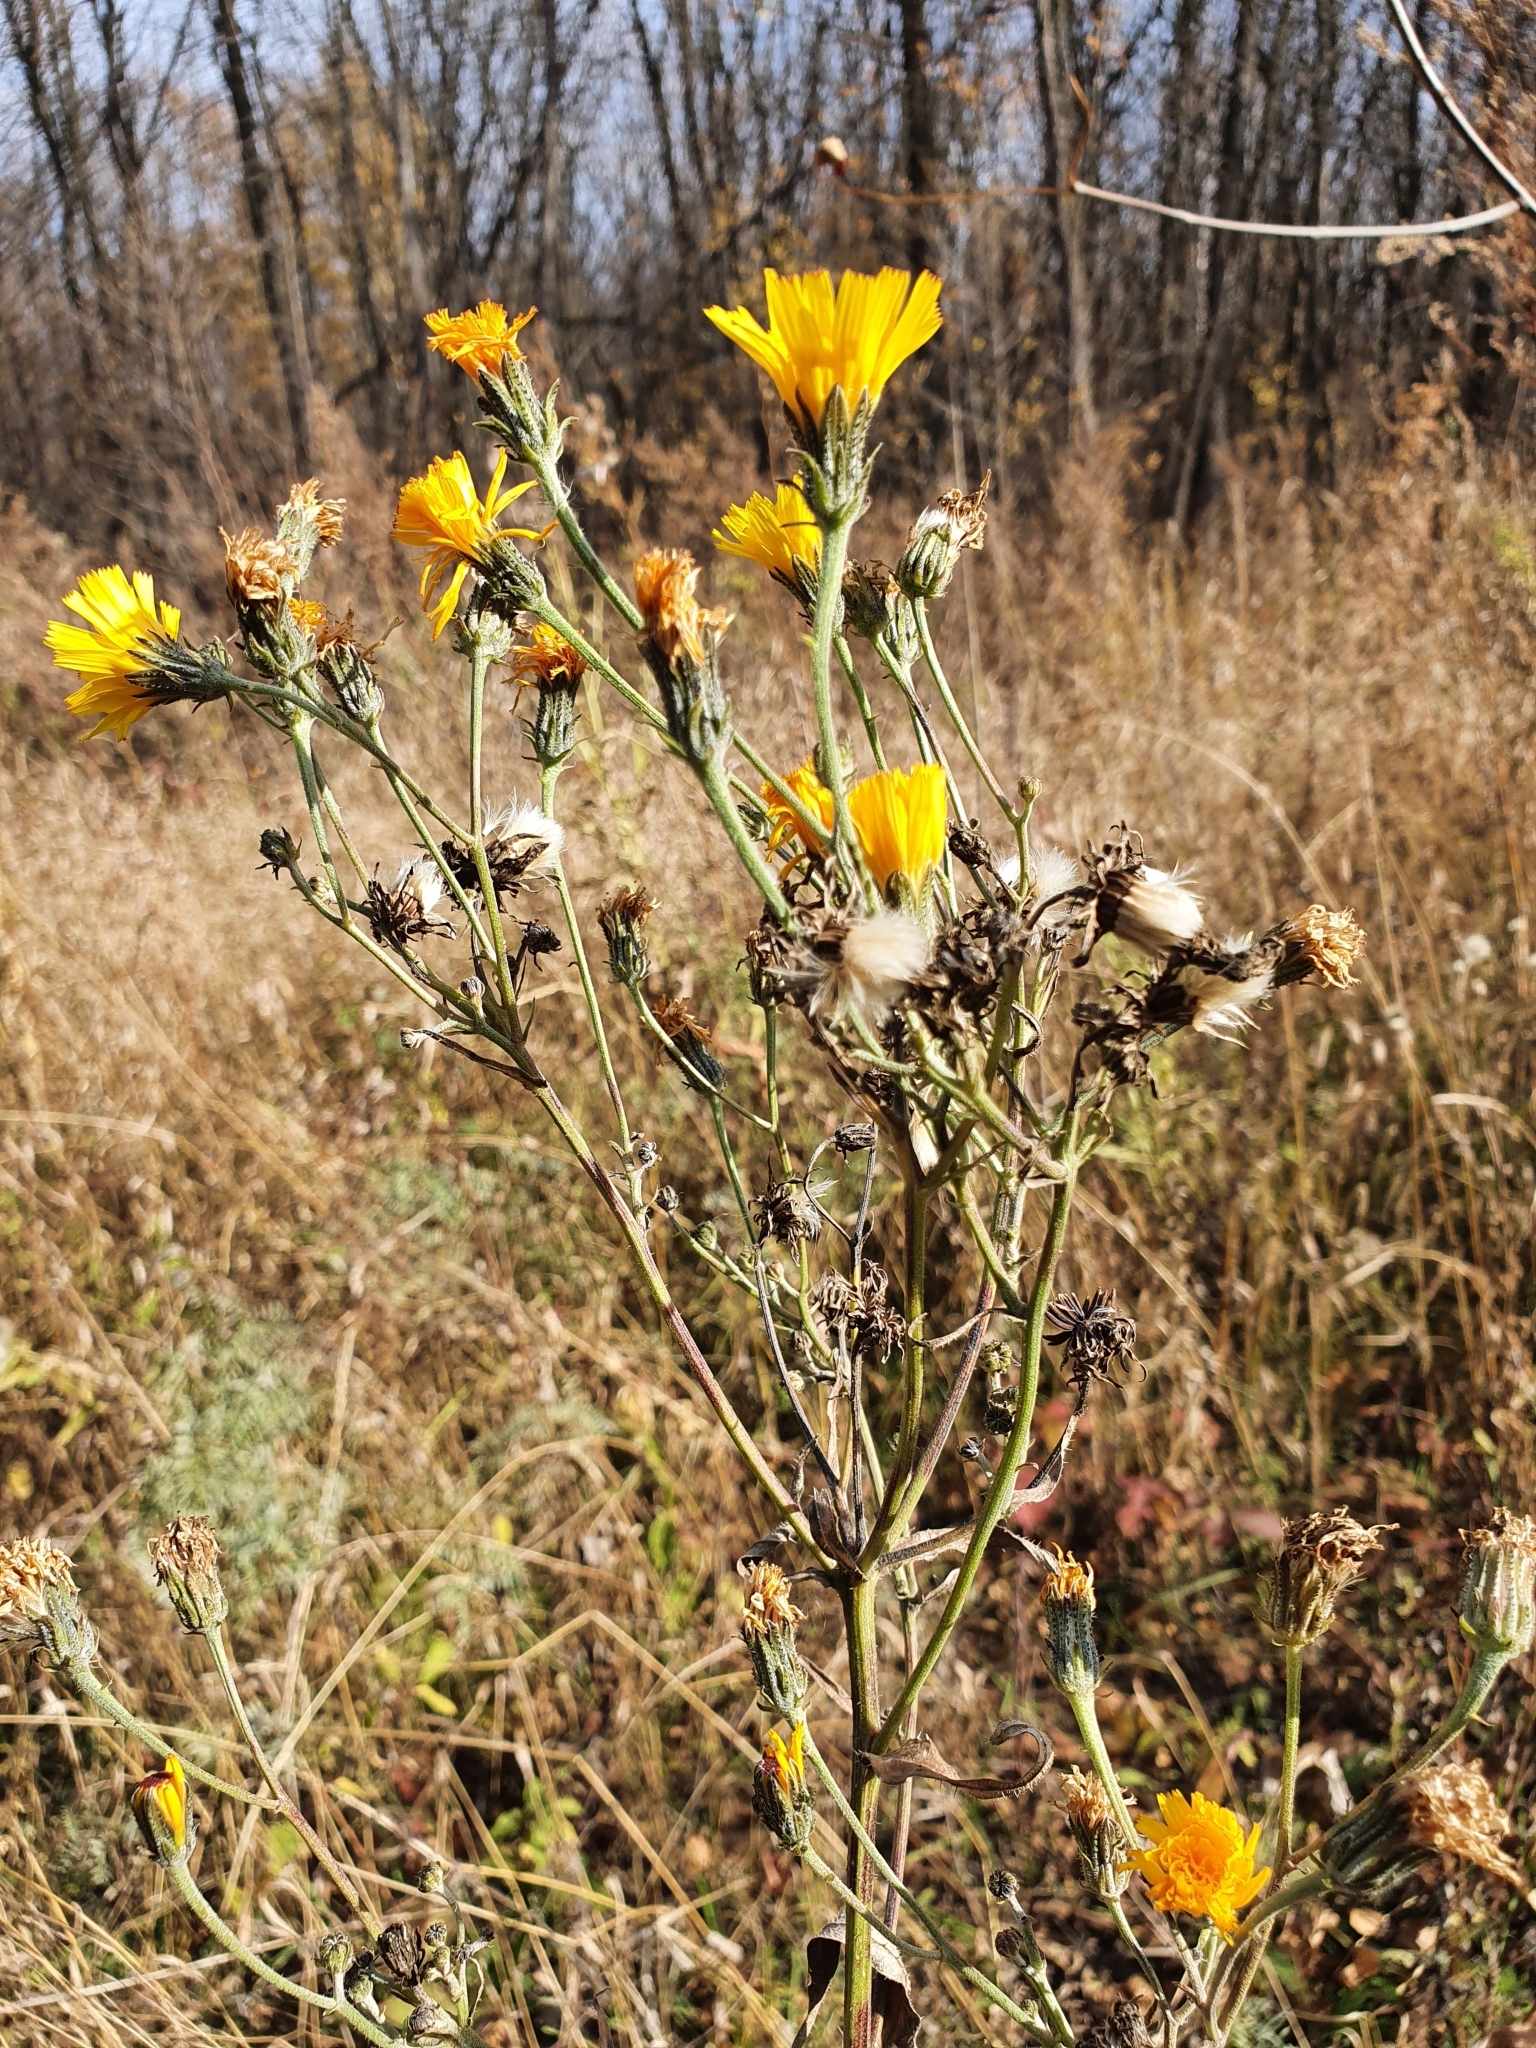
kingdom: Plantae
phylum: Tracheophyta
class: Magnoliopsida
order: Asterales
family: Asteraceae
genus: Picris
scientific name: Picris hieracioides
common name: Hawkweed oxtongue
